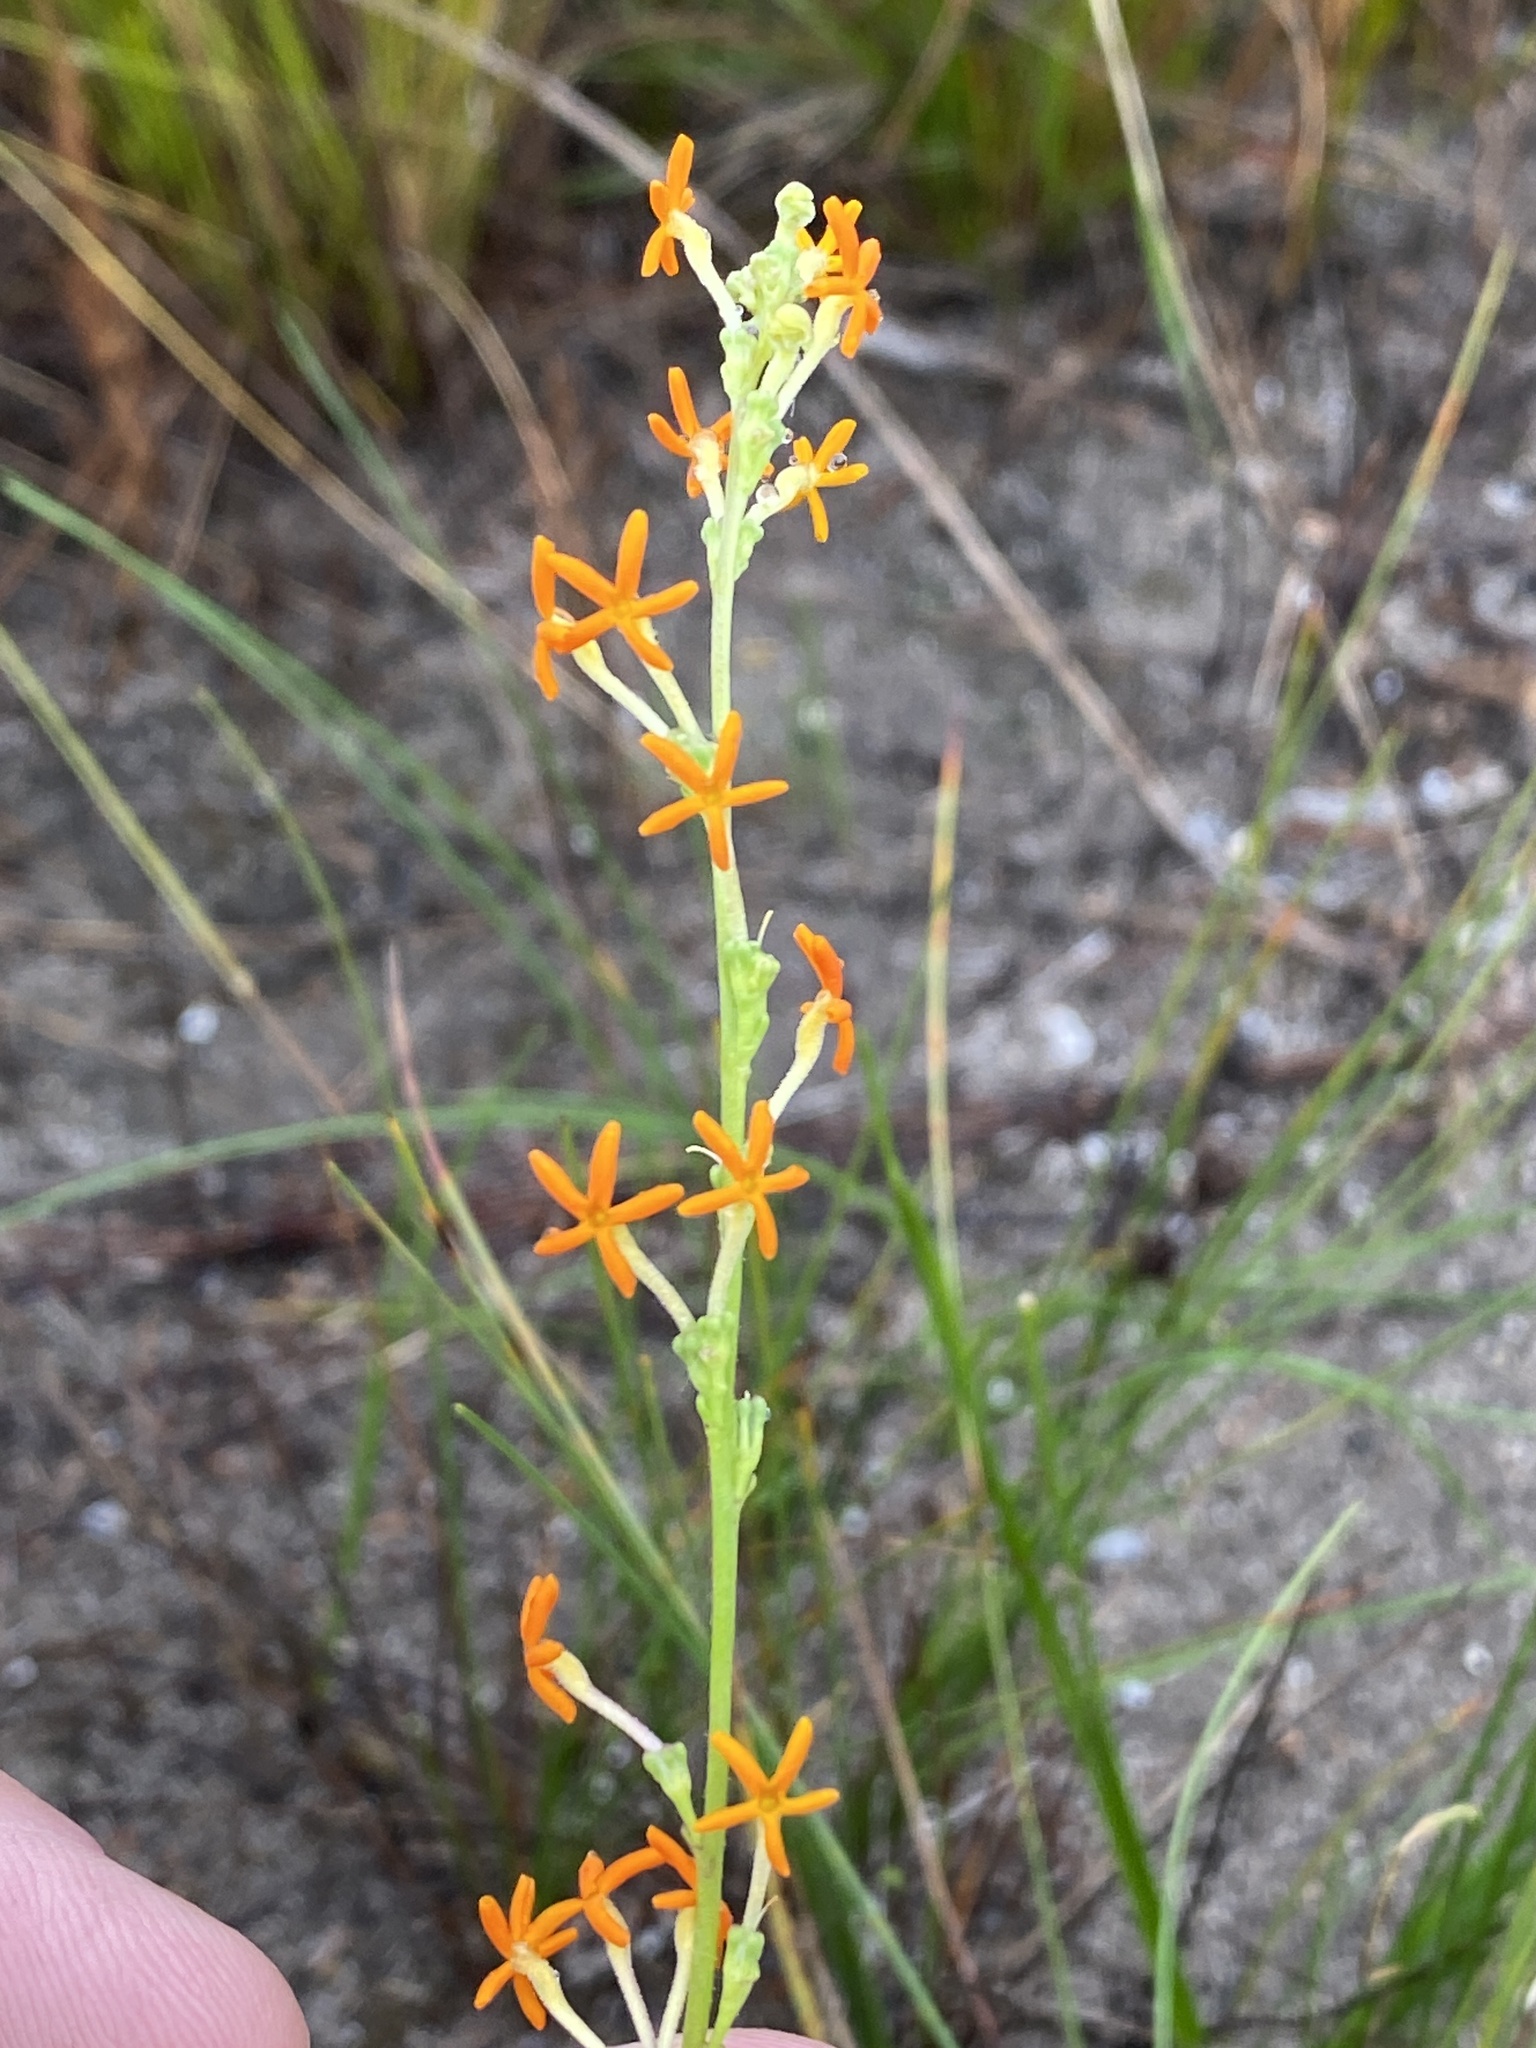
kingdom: Plantae
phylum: Tracheophyta
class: Magnoliopsida
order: Lamiales
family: Scrophulariaceae
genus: Manulea
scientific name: Manulea caledonica
